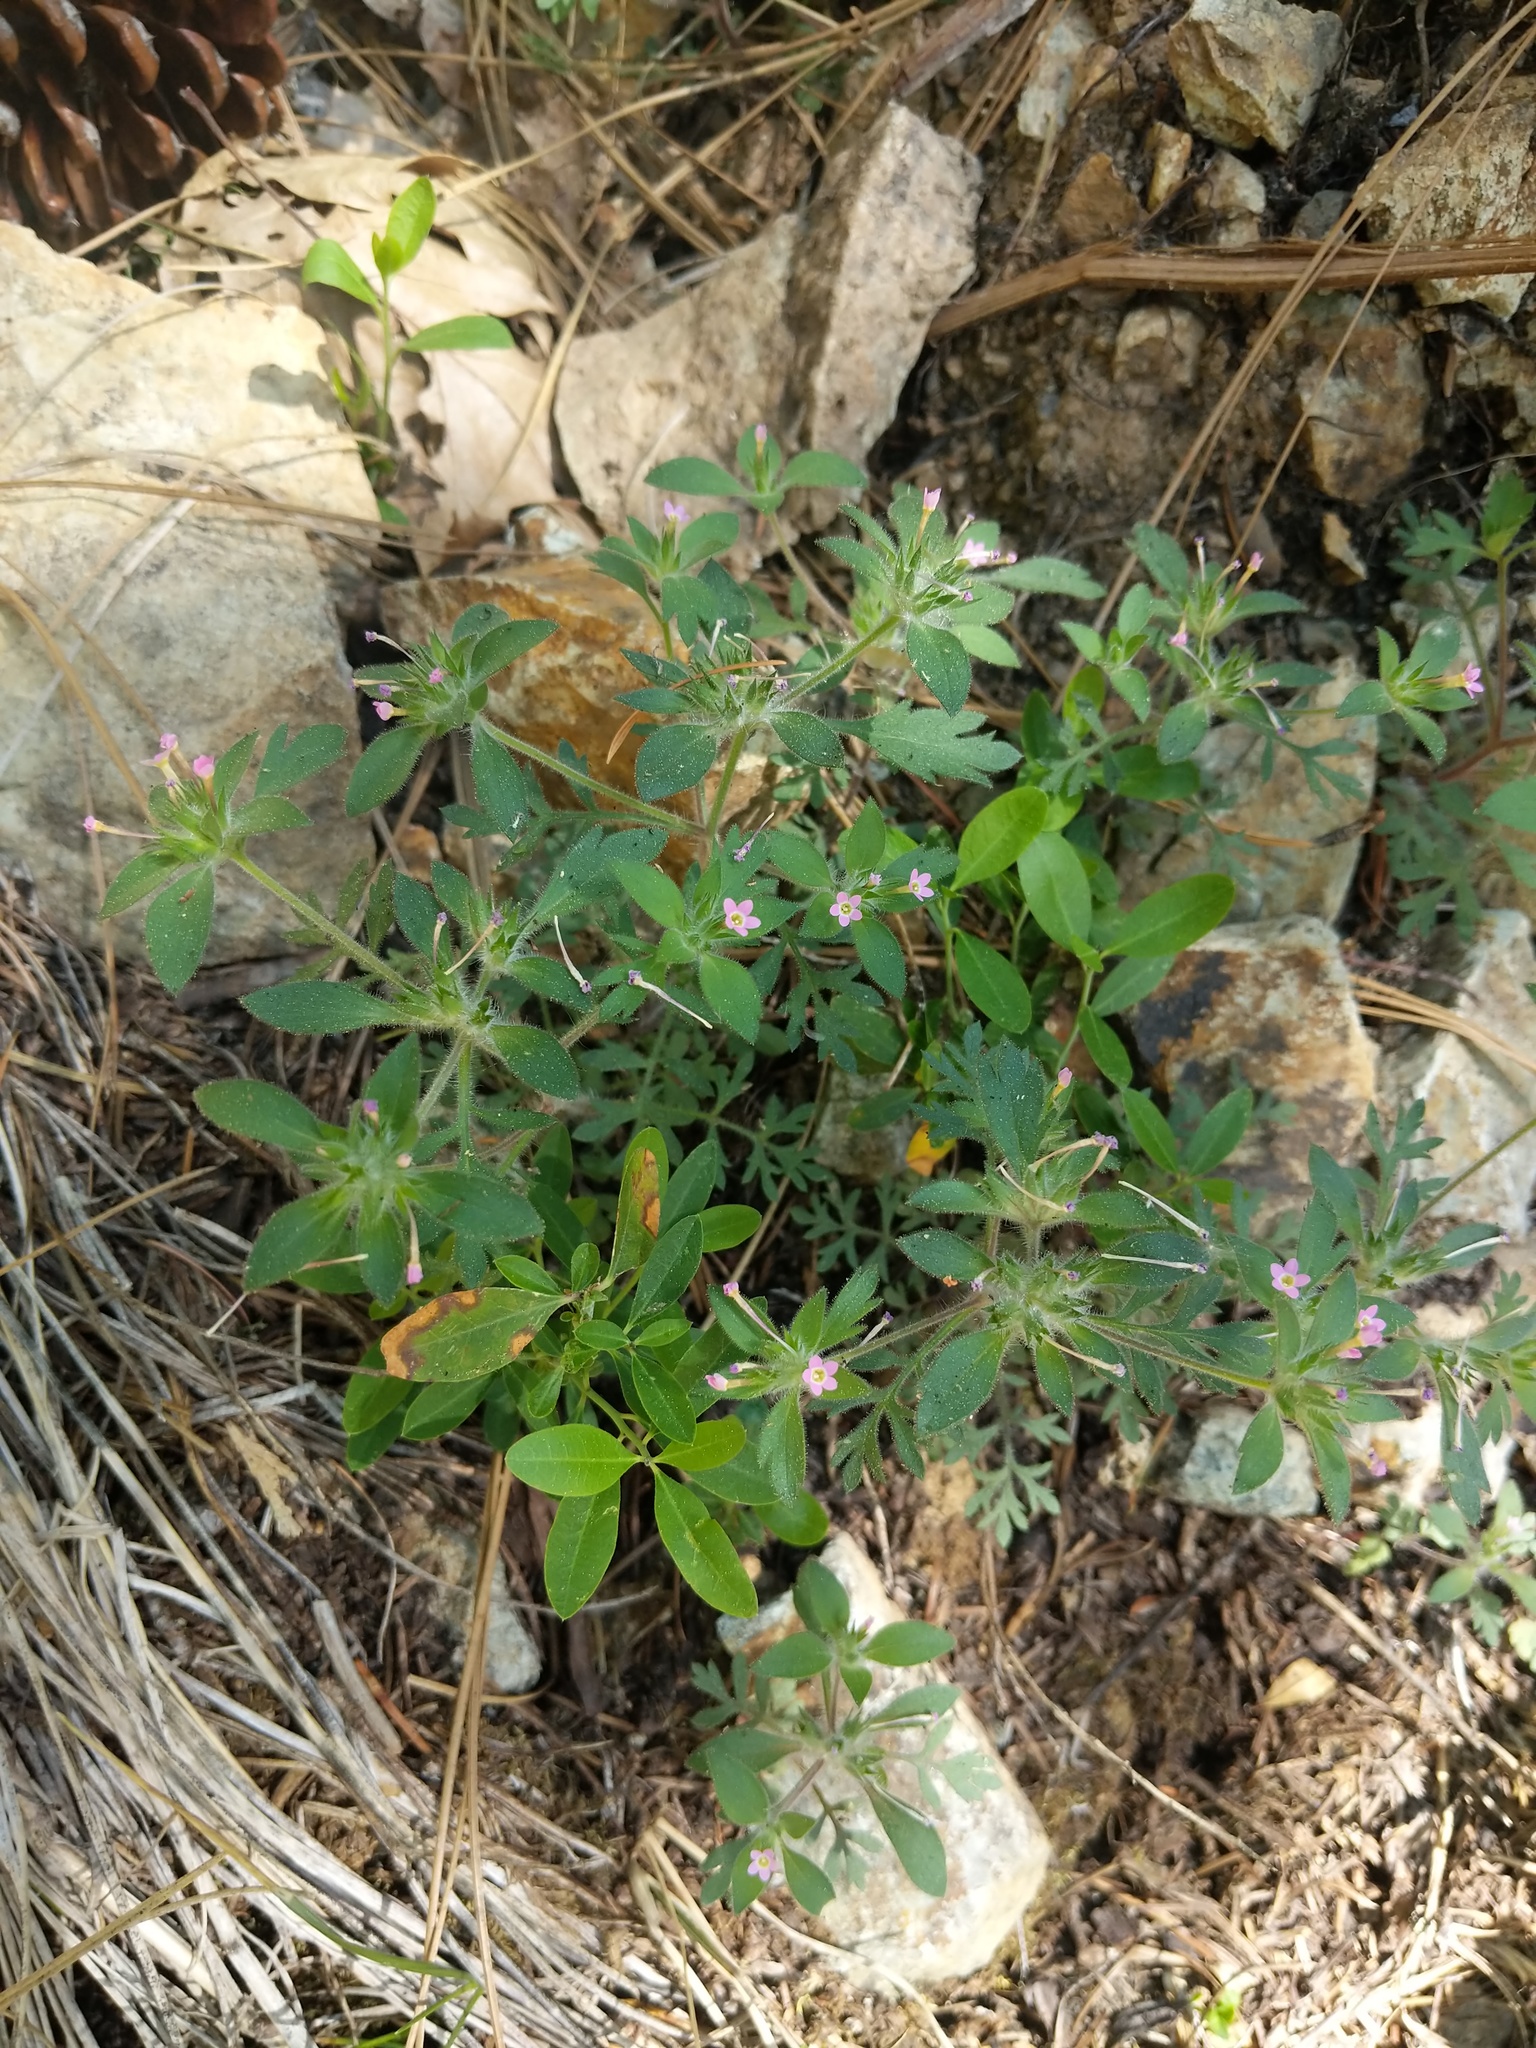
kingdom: Plantae
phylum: Tracheophyta
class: Magnoliopsida
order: Ericales
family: Polemoniaceae
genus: Collomia
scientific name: Collomia heterophylla
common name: Variable-leaved collomia
